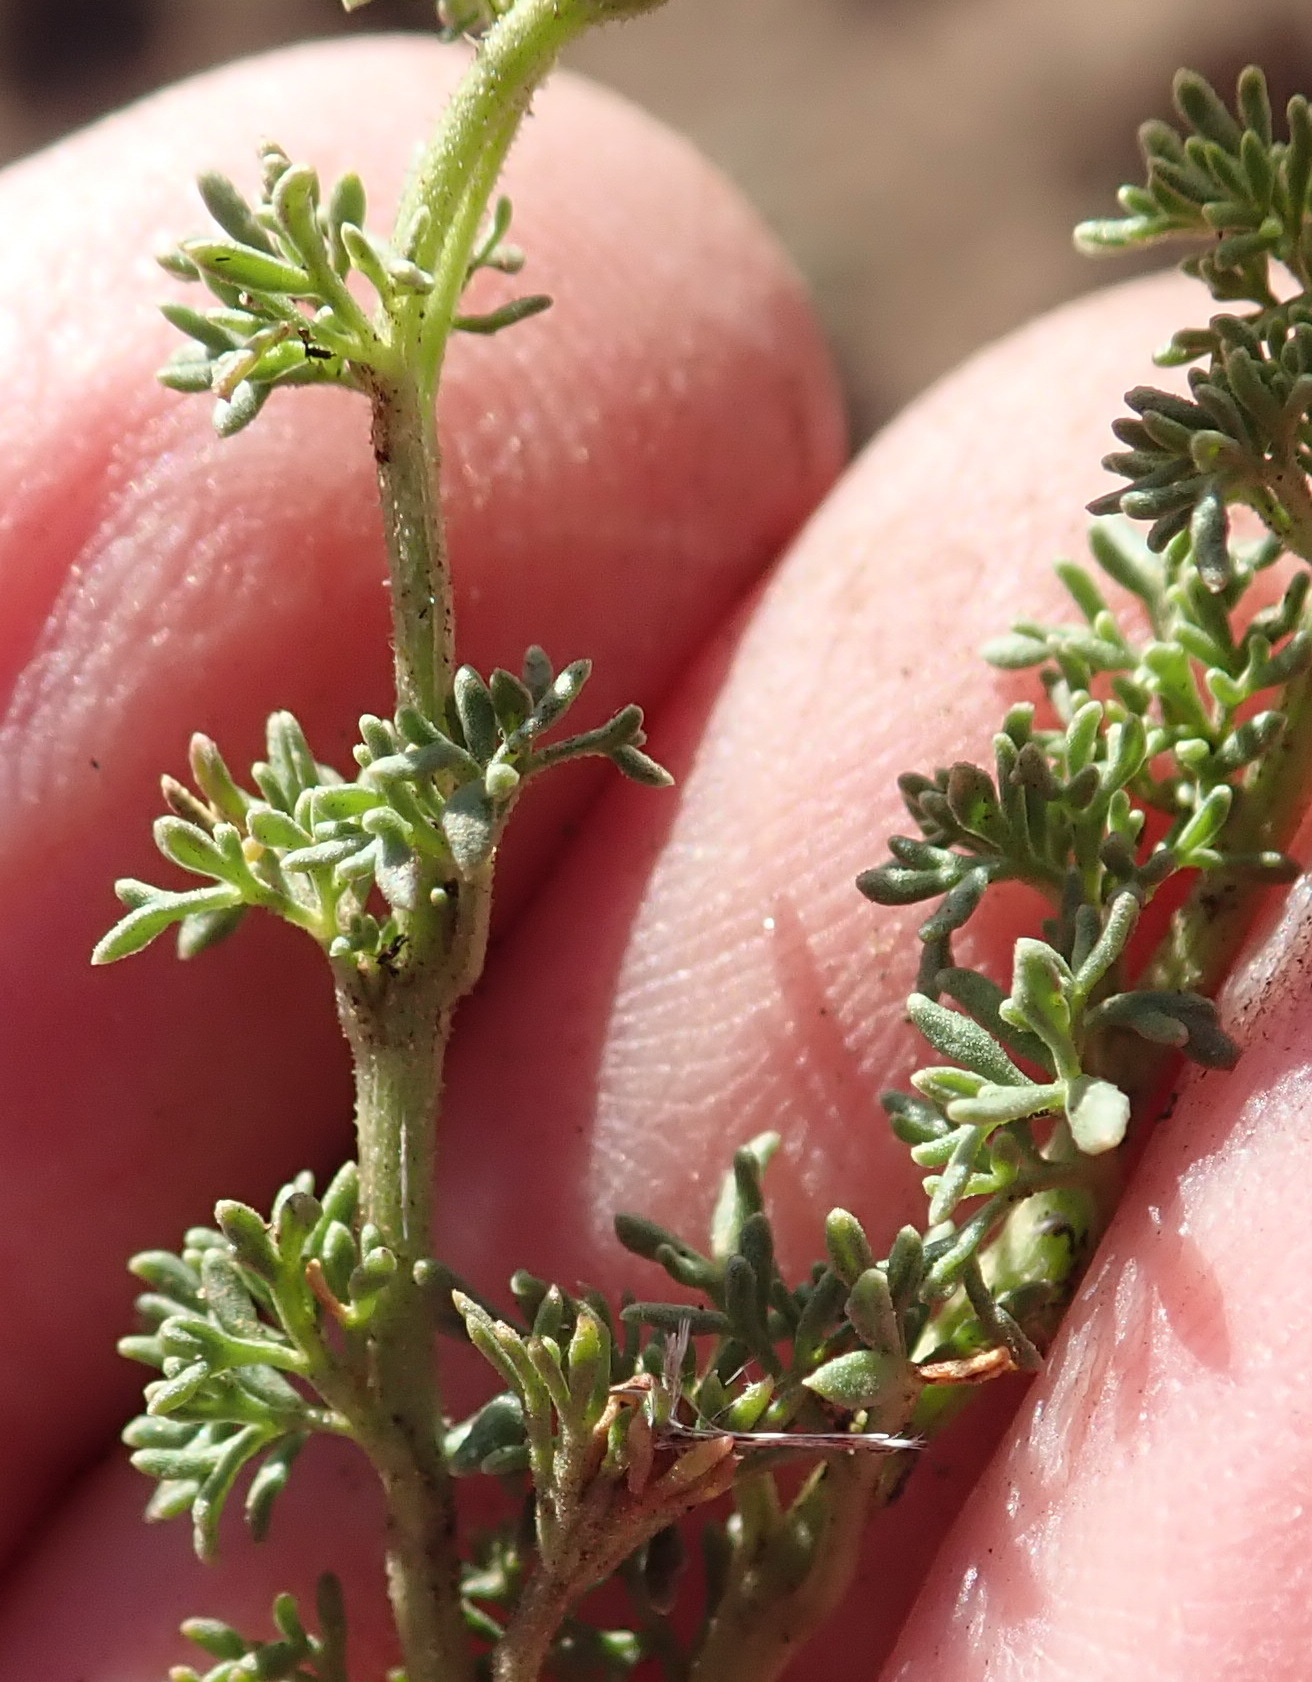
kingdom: Plantae
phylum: Tracheophyta
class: Magnoliopsida
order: Lamiales
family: Oleaceae
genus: Menodora
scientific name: Menodora africana
